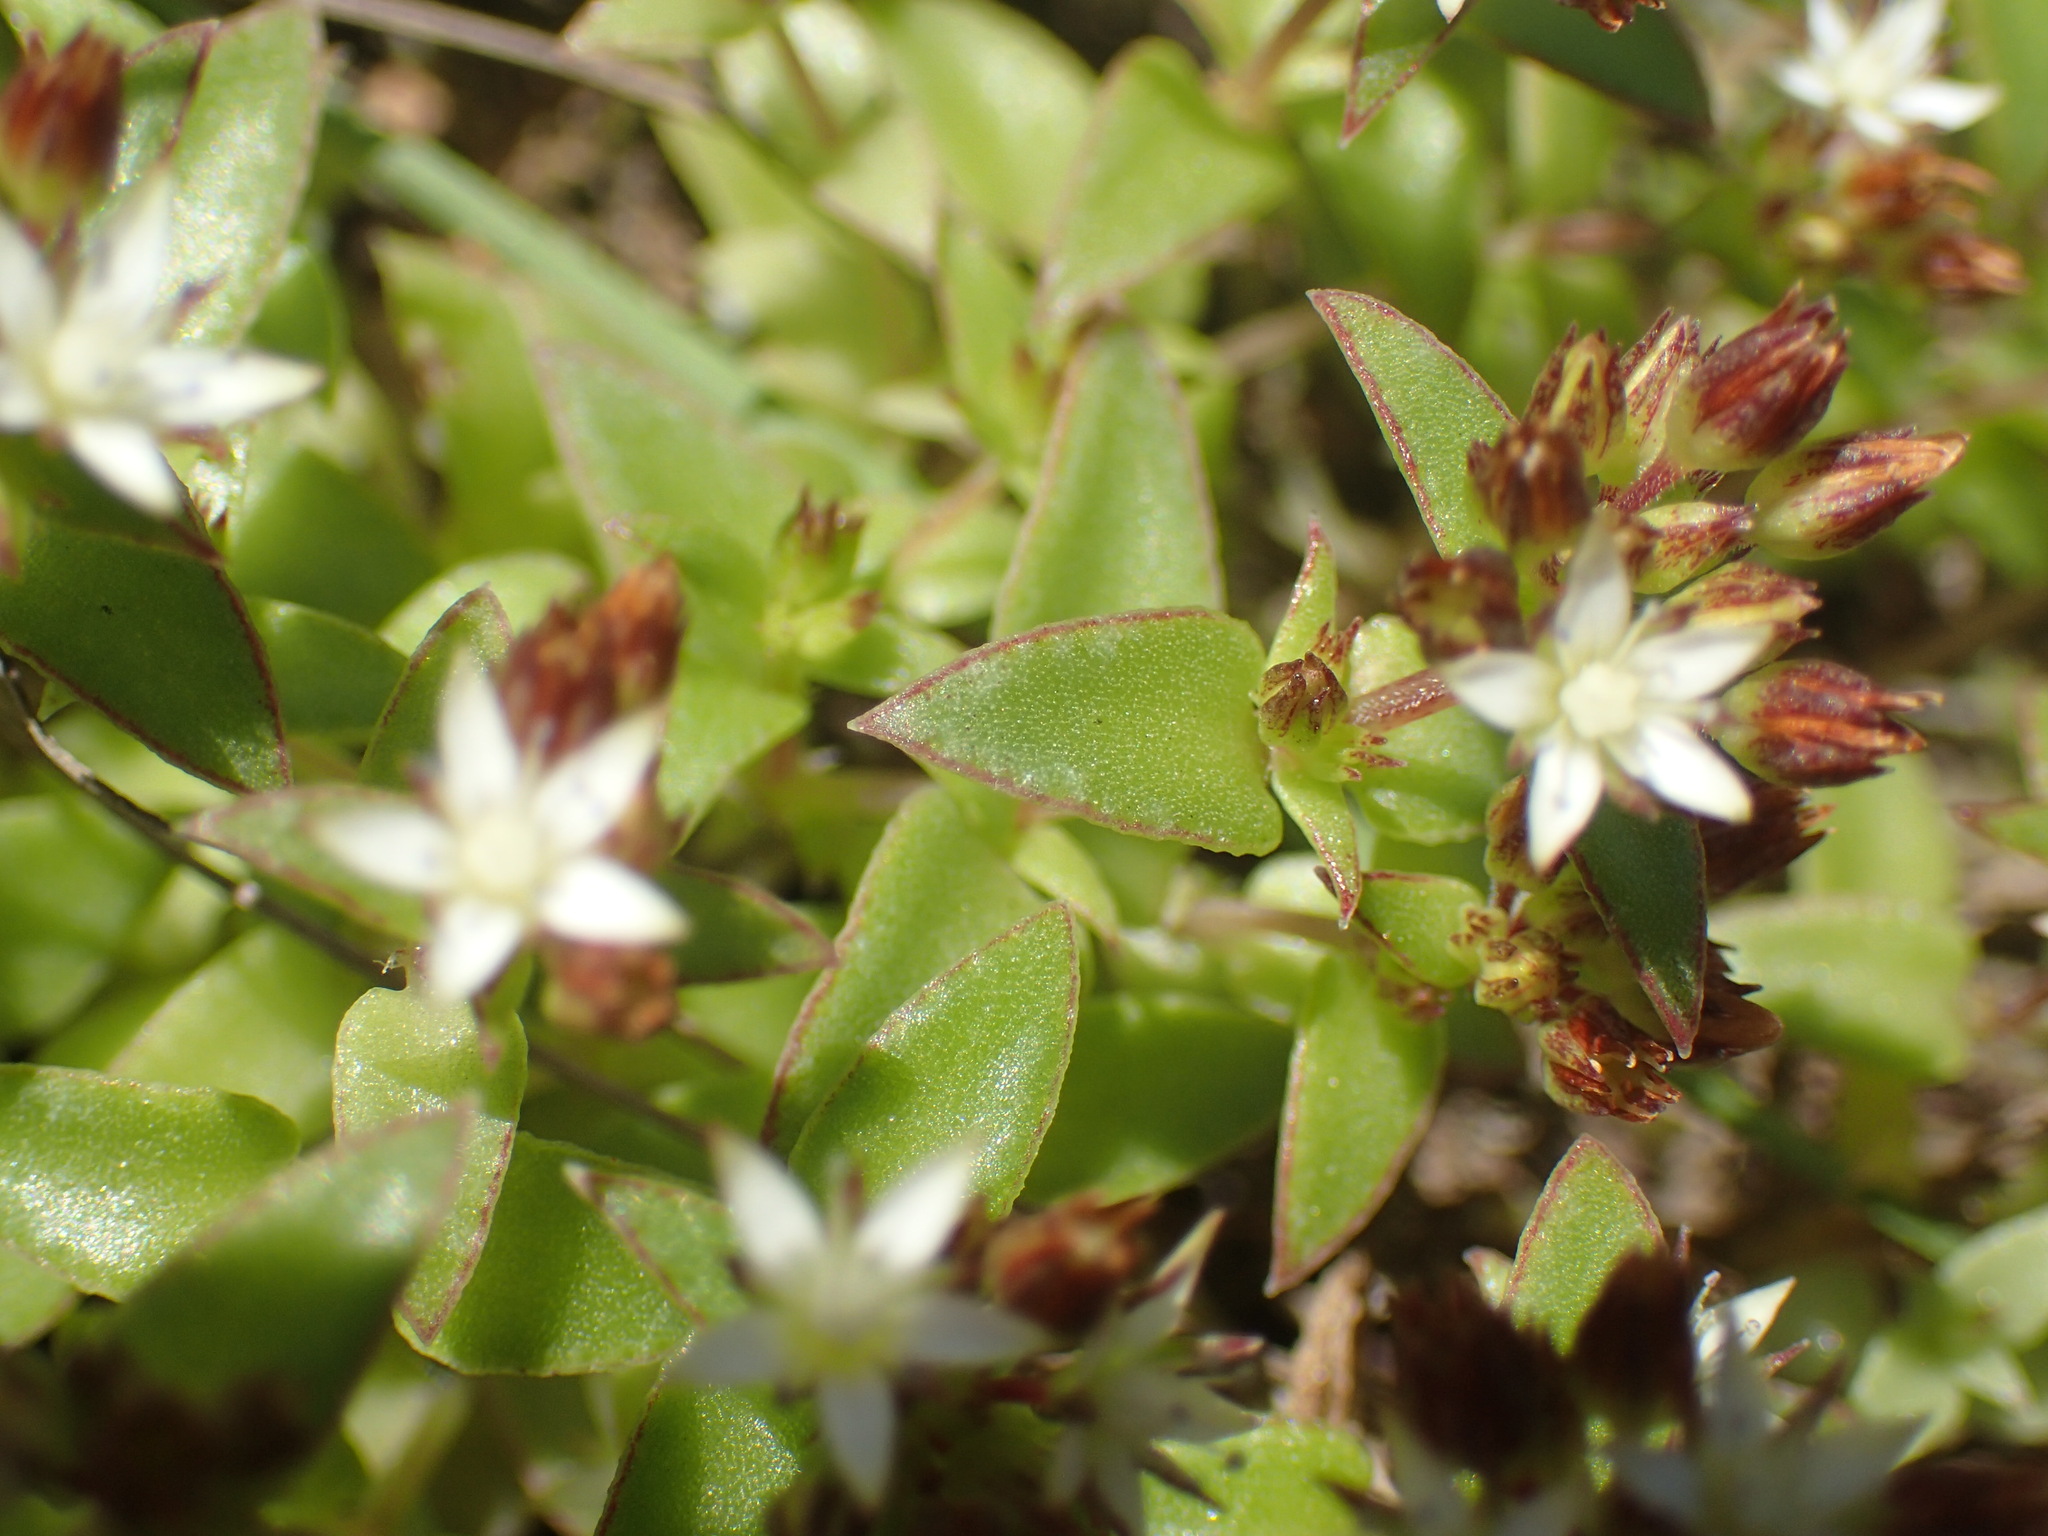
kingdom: Plantae
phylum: Tracheophyta
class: Magnoliopsida
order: Saxifragales
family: Crassulaceae
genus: Crassula
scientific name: Crassula pellucida
